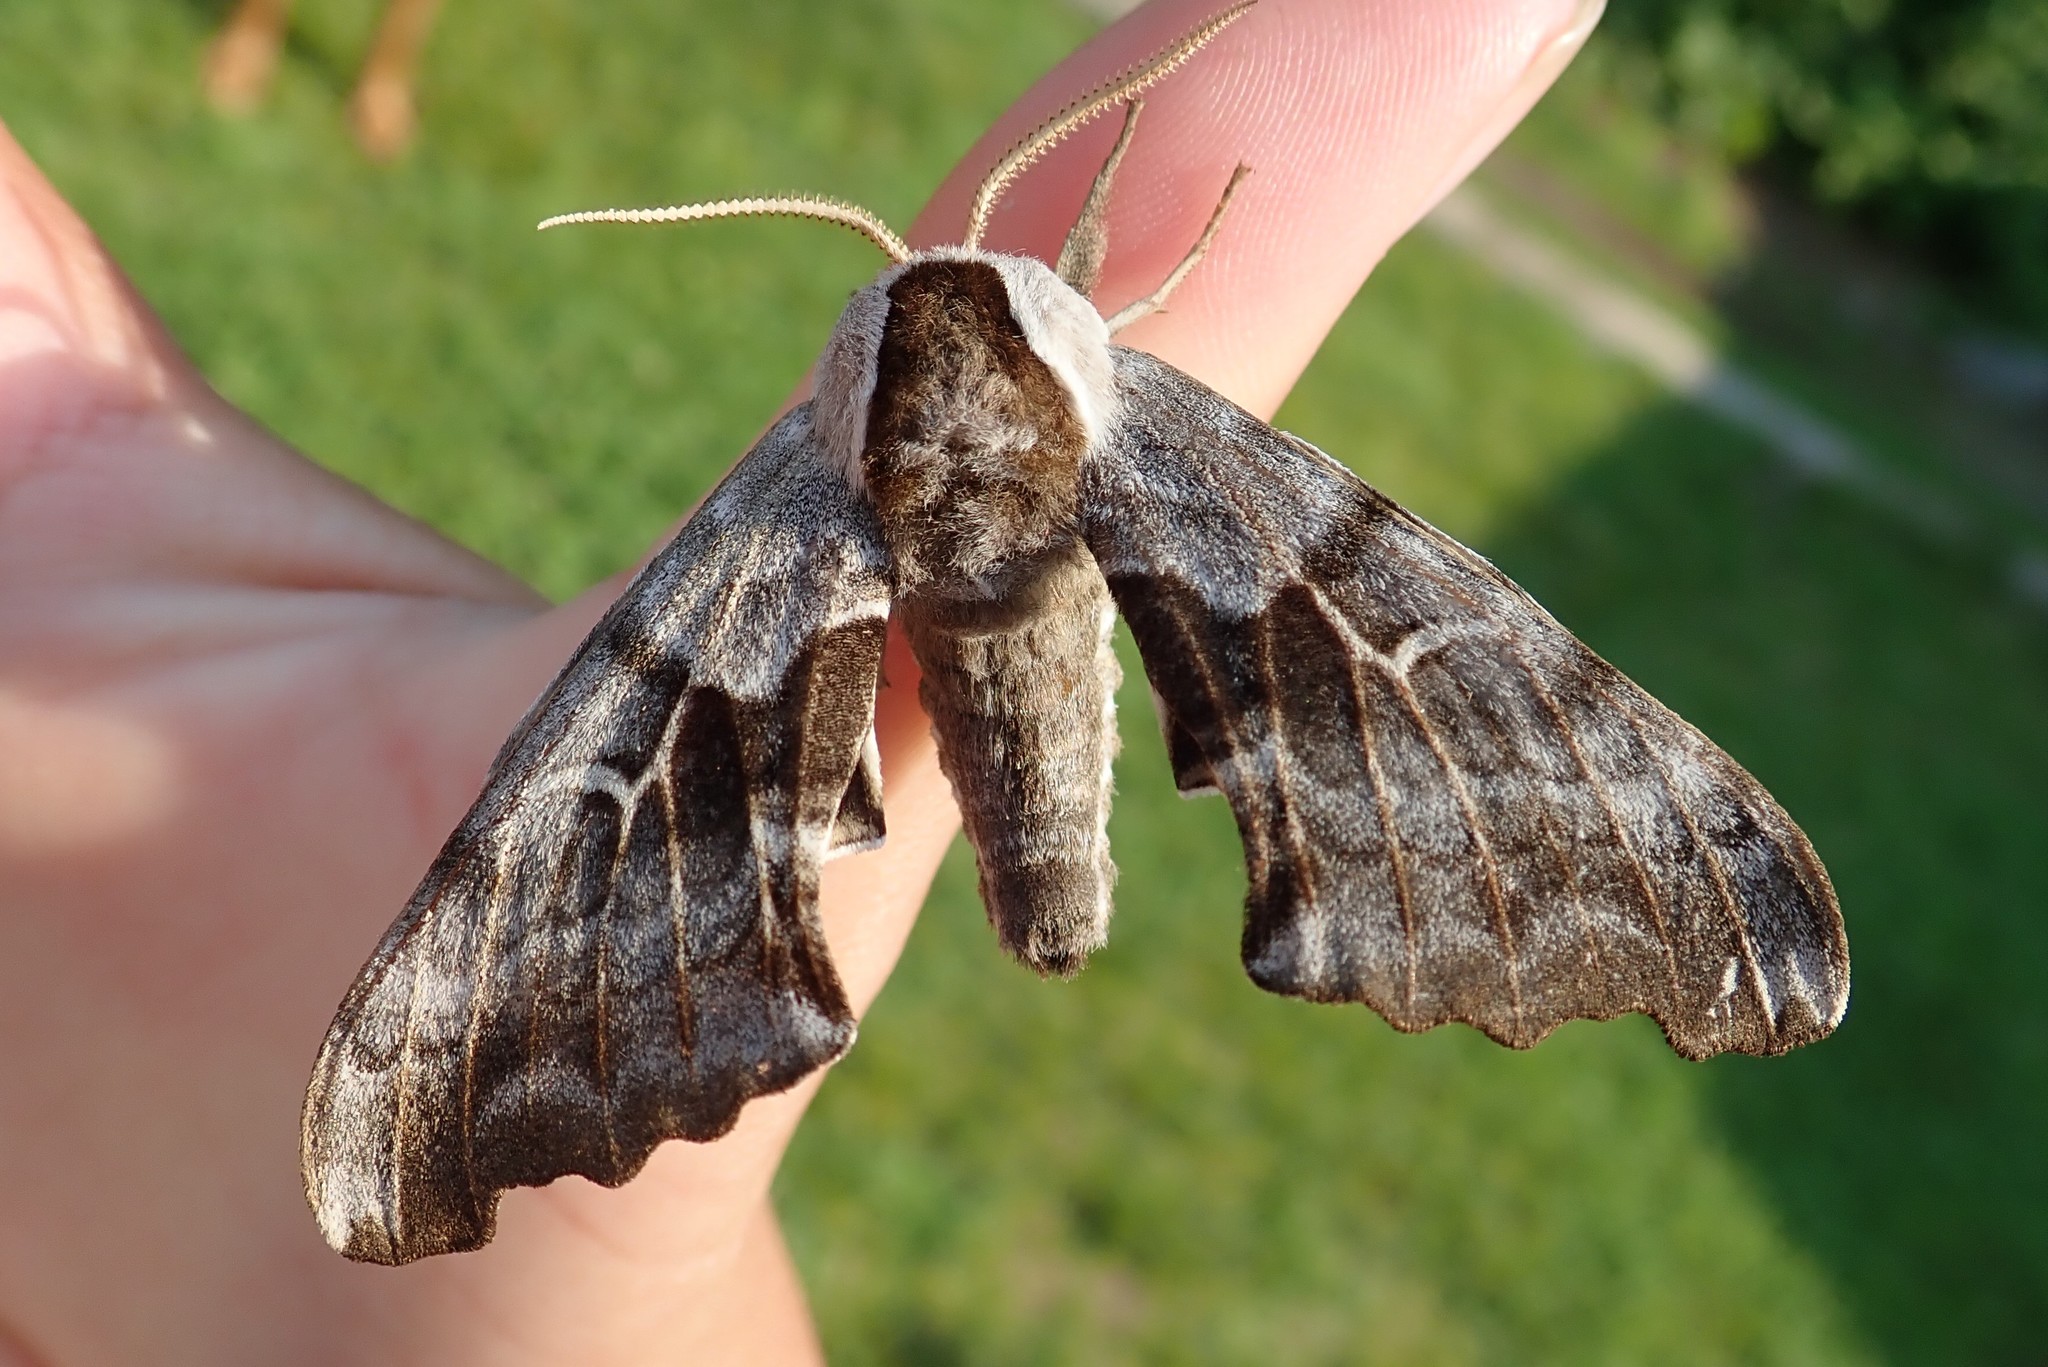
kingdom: Animalia
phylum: Arthropoda
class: Insecta
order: Lepidoptera
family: Sphingidae
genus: Smerinthus
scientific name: Smerinthus cerisyi
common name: Cerisy's sphinx moth
